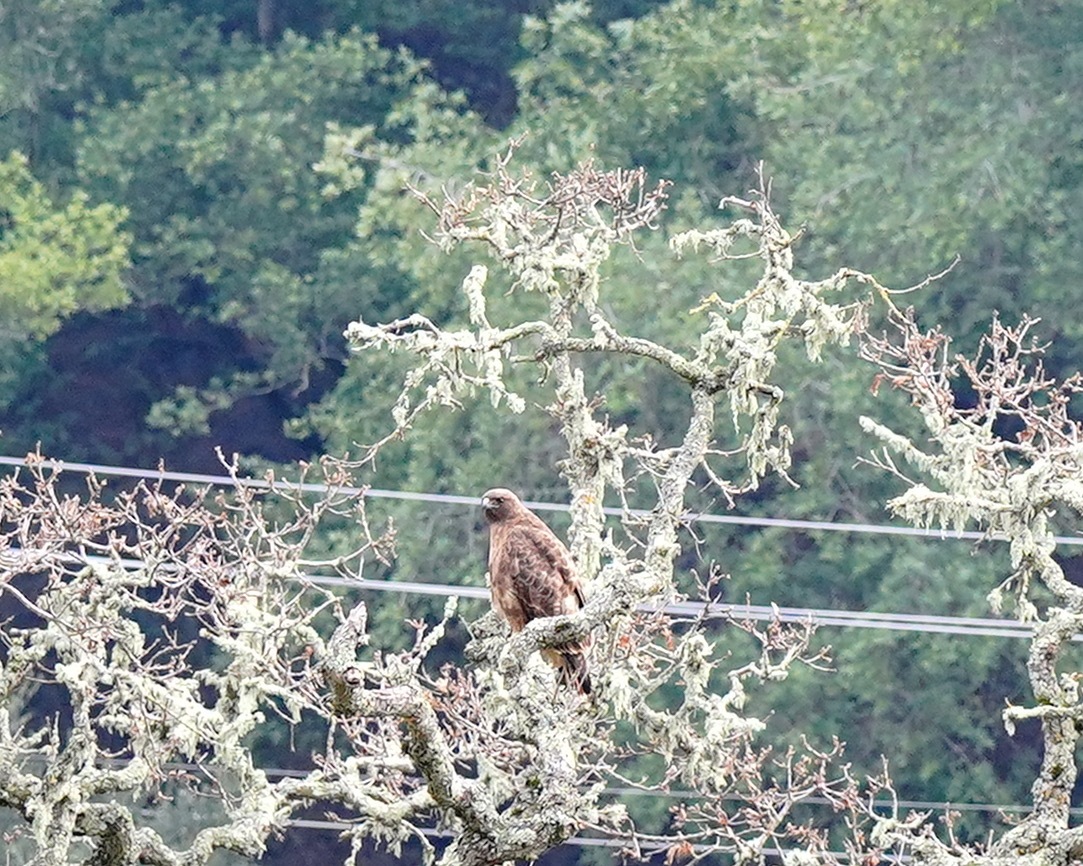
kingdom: Animalia
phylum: Chordata
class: Aves
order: Accipitriformes
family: Accipitridae
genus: Buteo
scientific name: Buteo jamaicensis
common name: Red-tailed hawk
